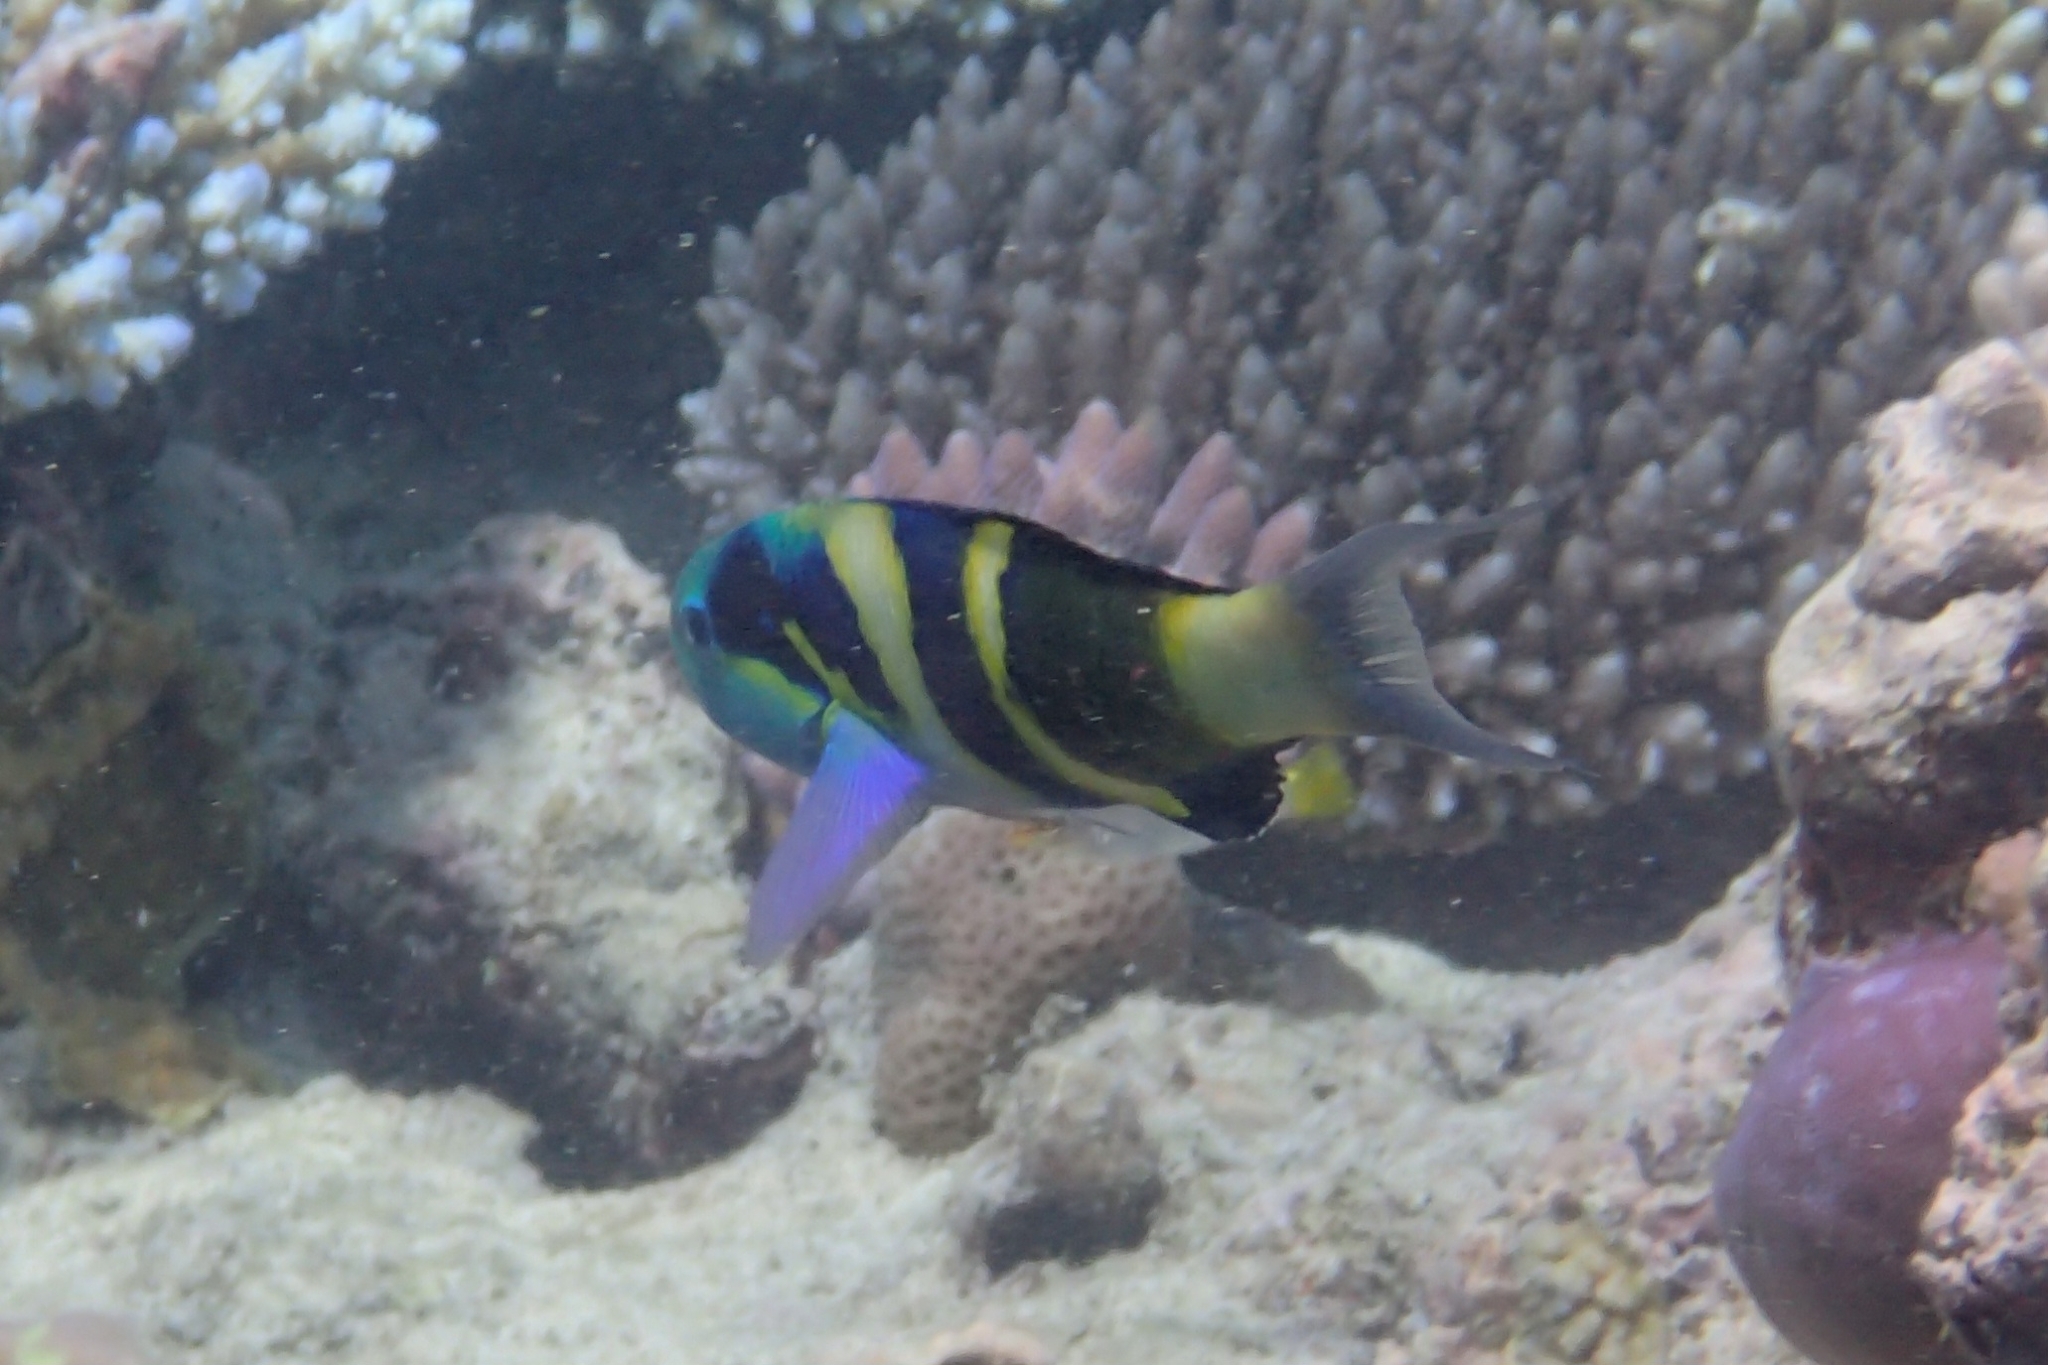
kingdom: Animalia
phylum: Chordata
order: Perciformes
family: Labridae
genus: Thalassoma
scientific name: Thalassoma nigrofasciatum
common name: Black-barred wrasse
